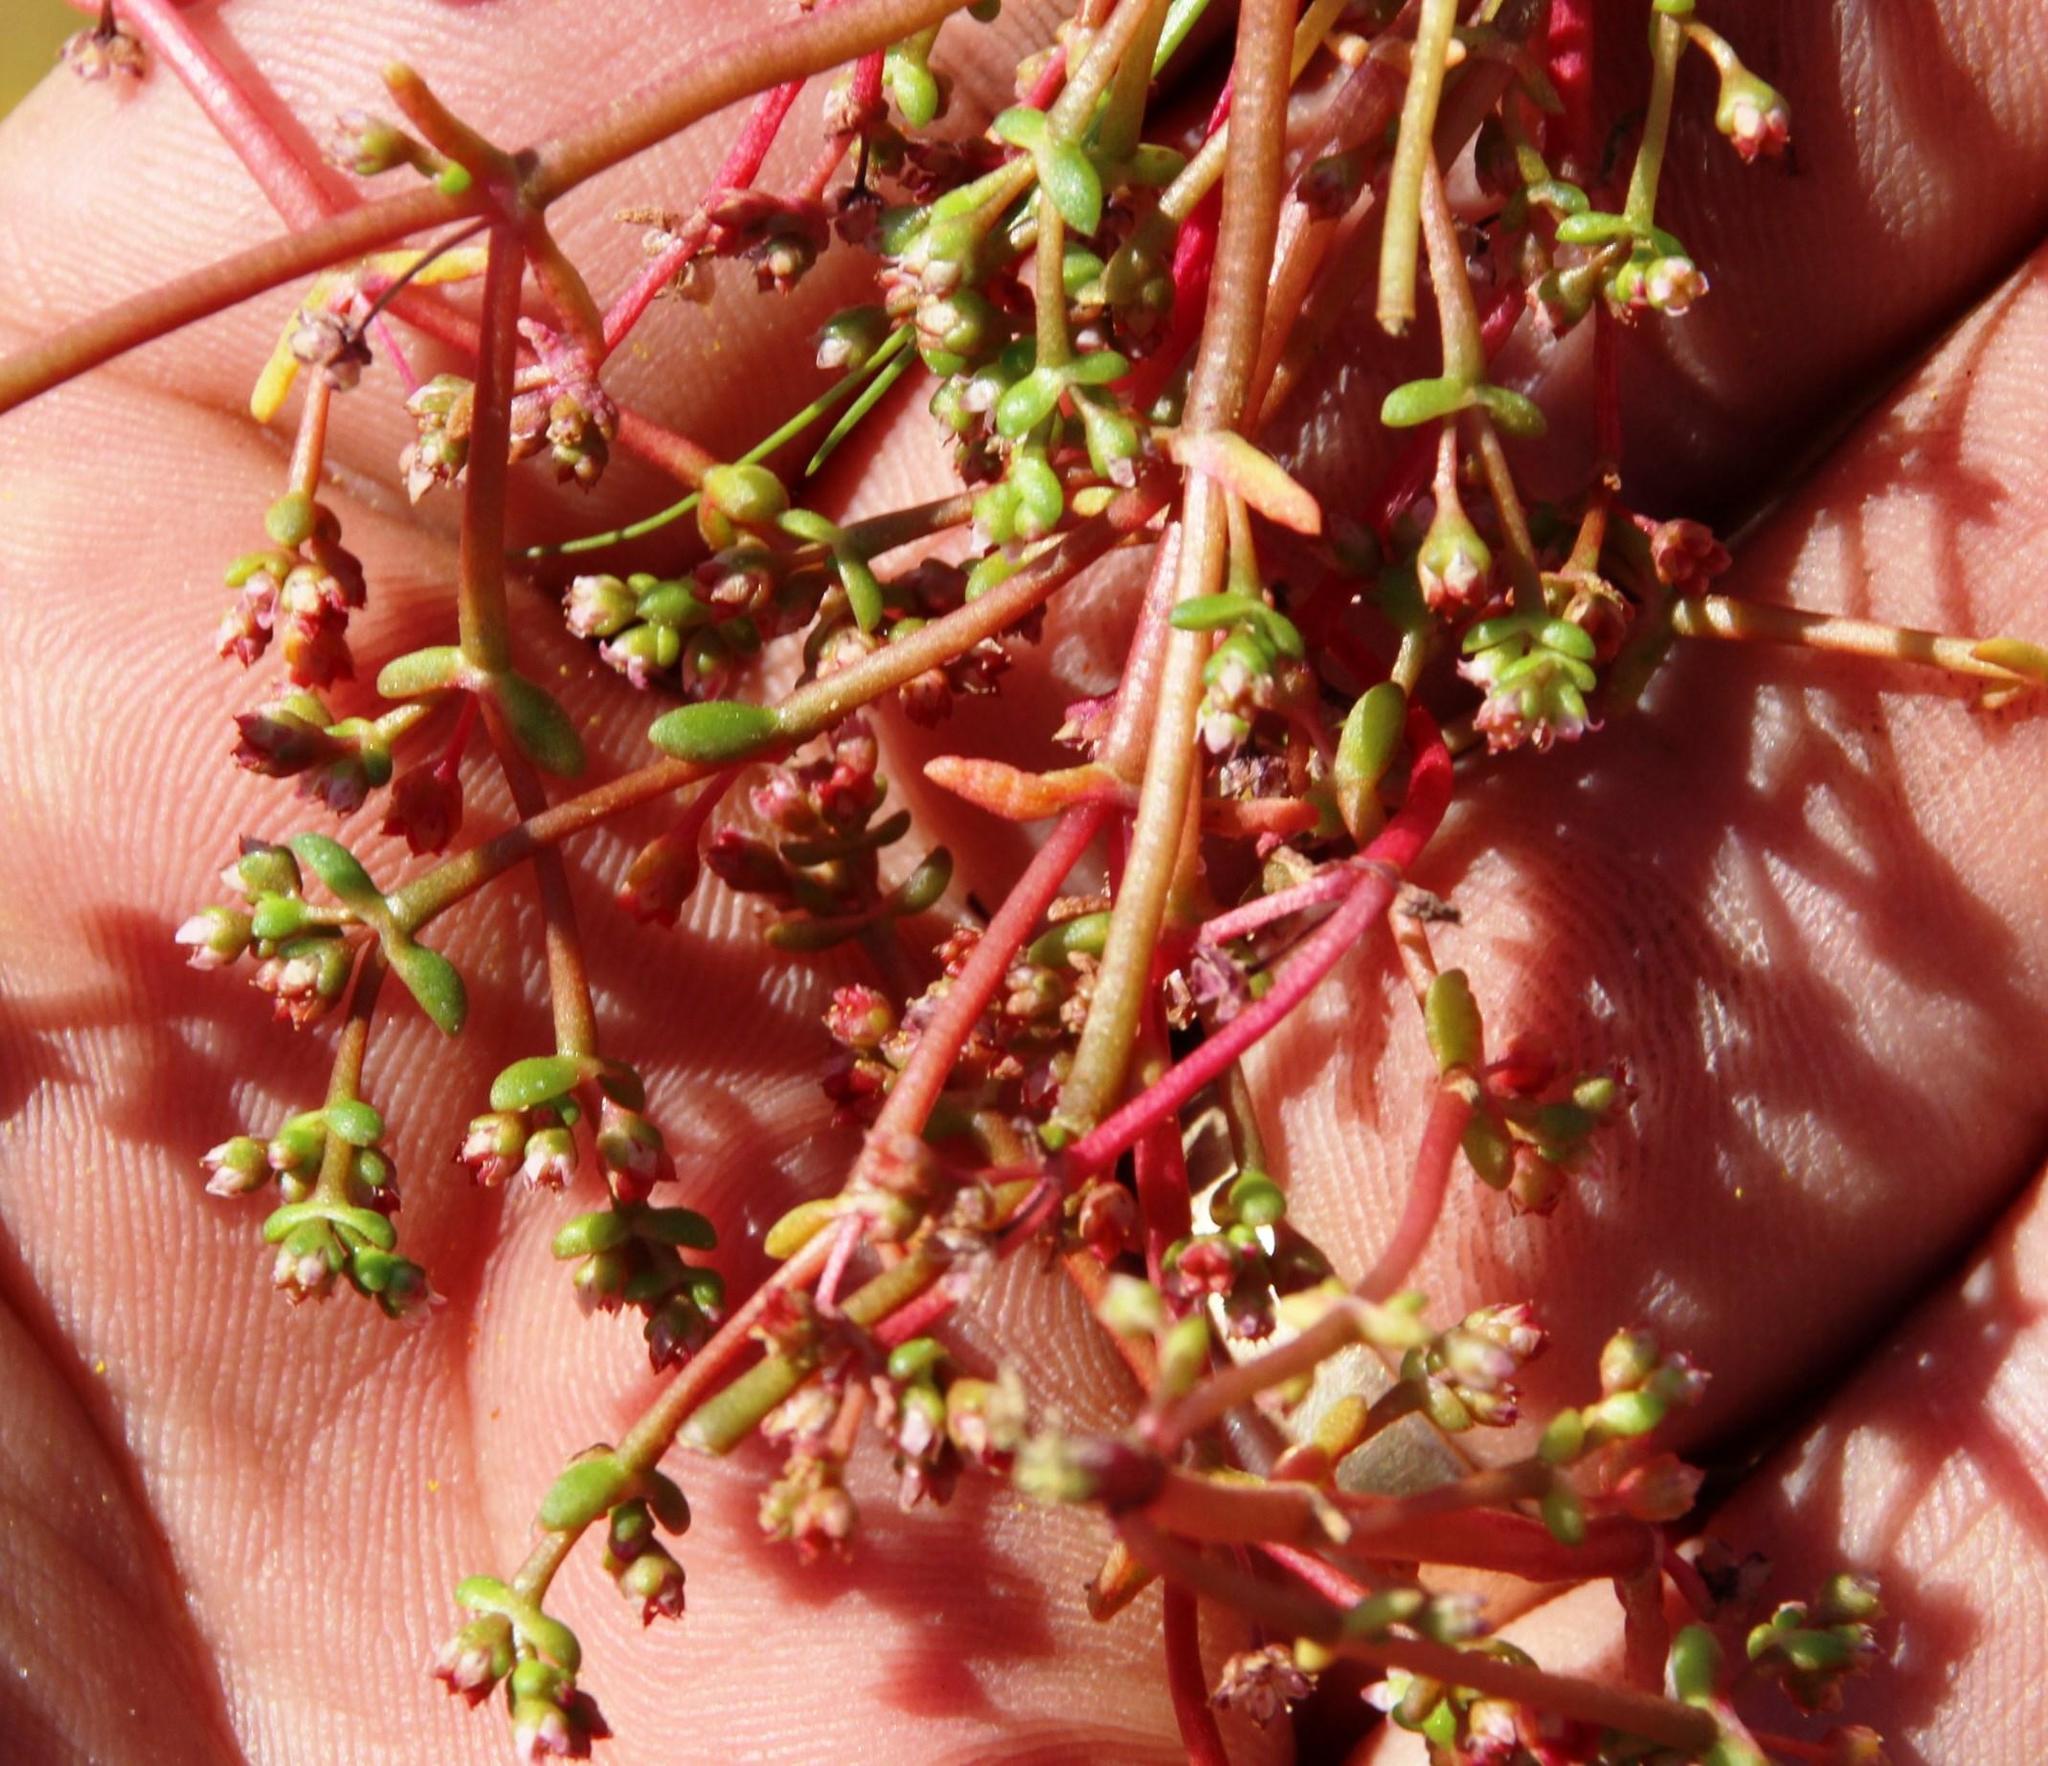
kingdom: Plantae
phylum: Tracheophyta
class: Magnoliopsida
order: Saxifragales
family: Crassulaceae
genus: Crassula
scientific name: Crassula vaillantii
